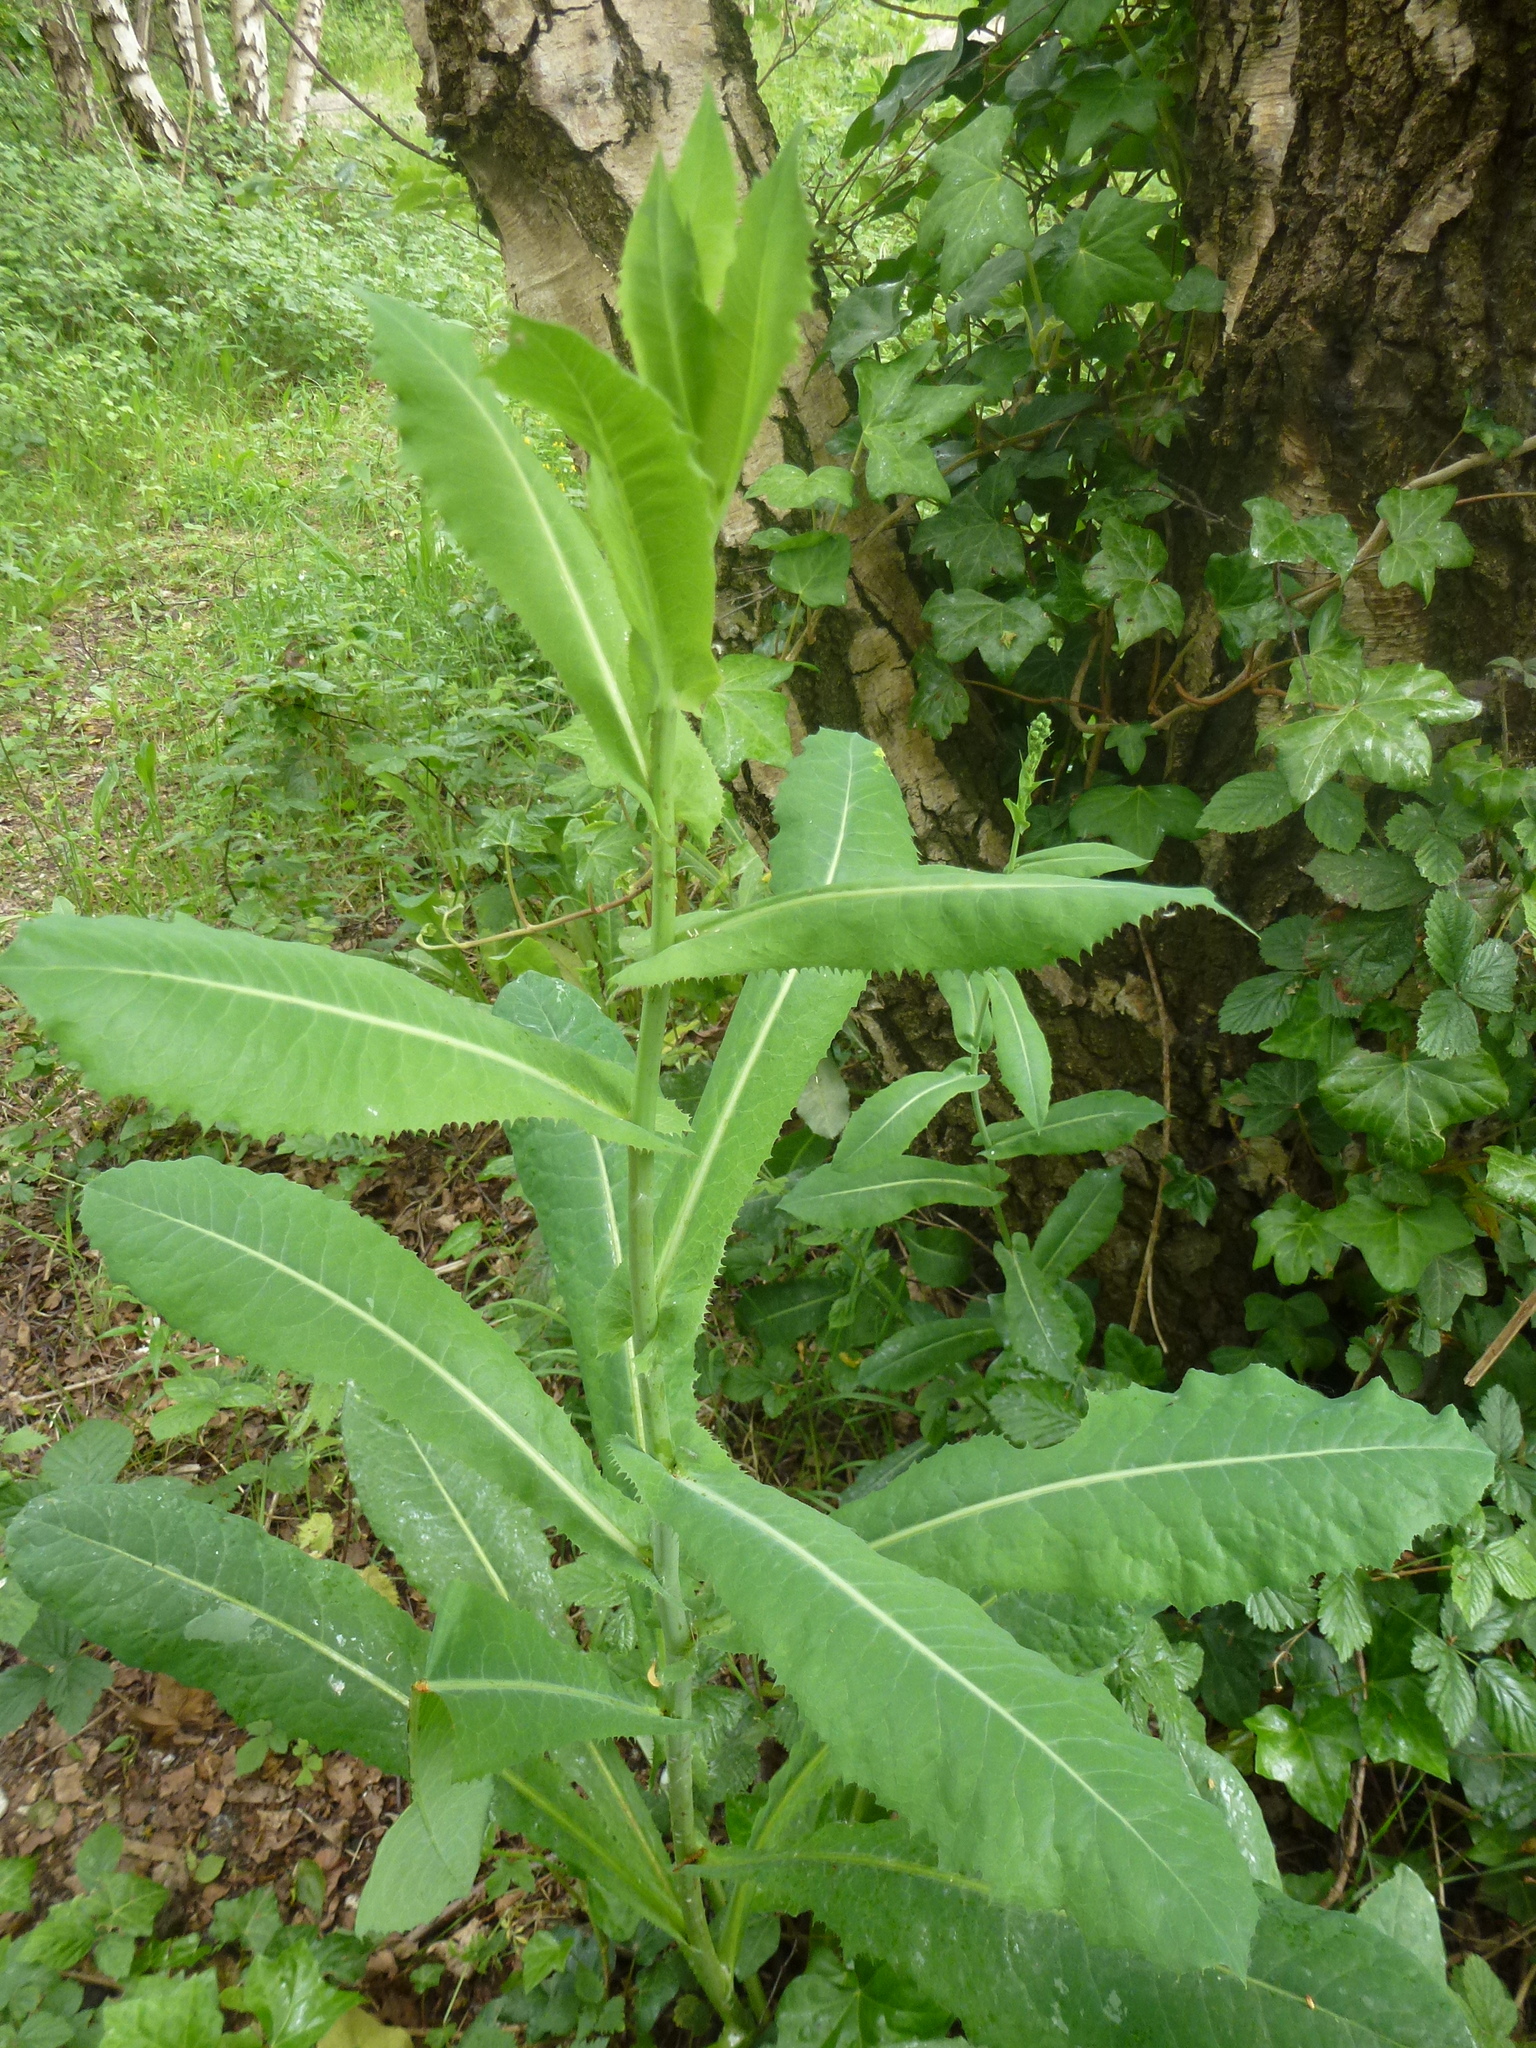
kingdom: Plantae
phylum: Tracheophyta
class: Magnoliopsida
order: Asterales
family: Asteraceae
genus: Lactuca
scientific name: Lactuca serriola
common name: Prickly lettuce
